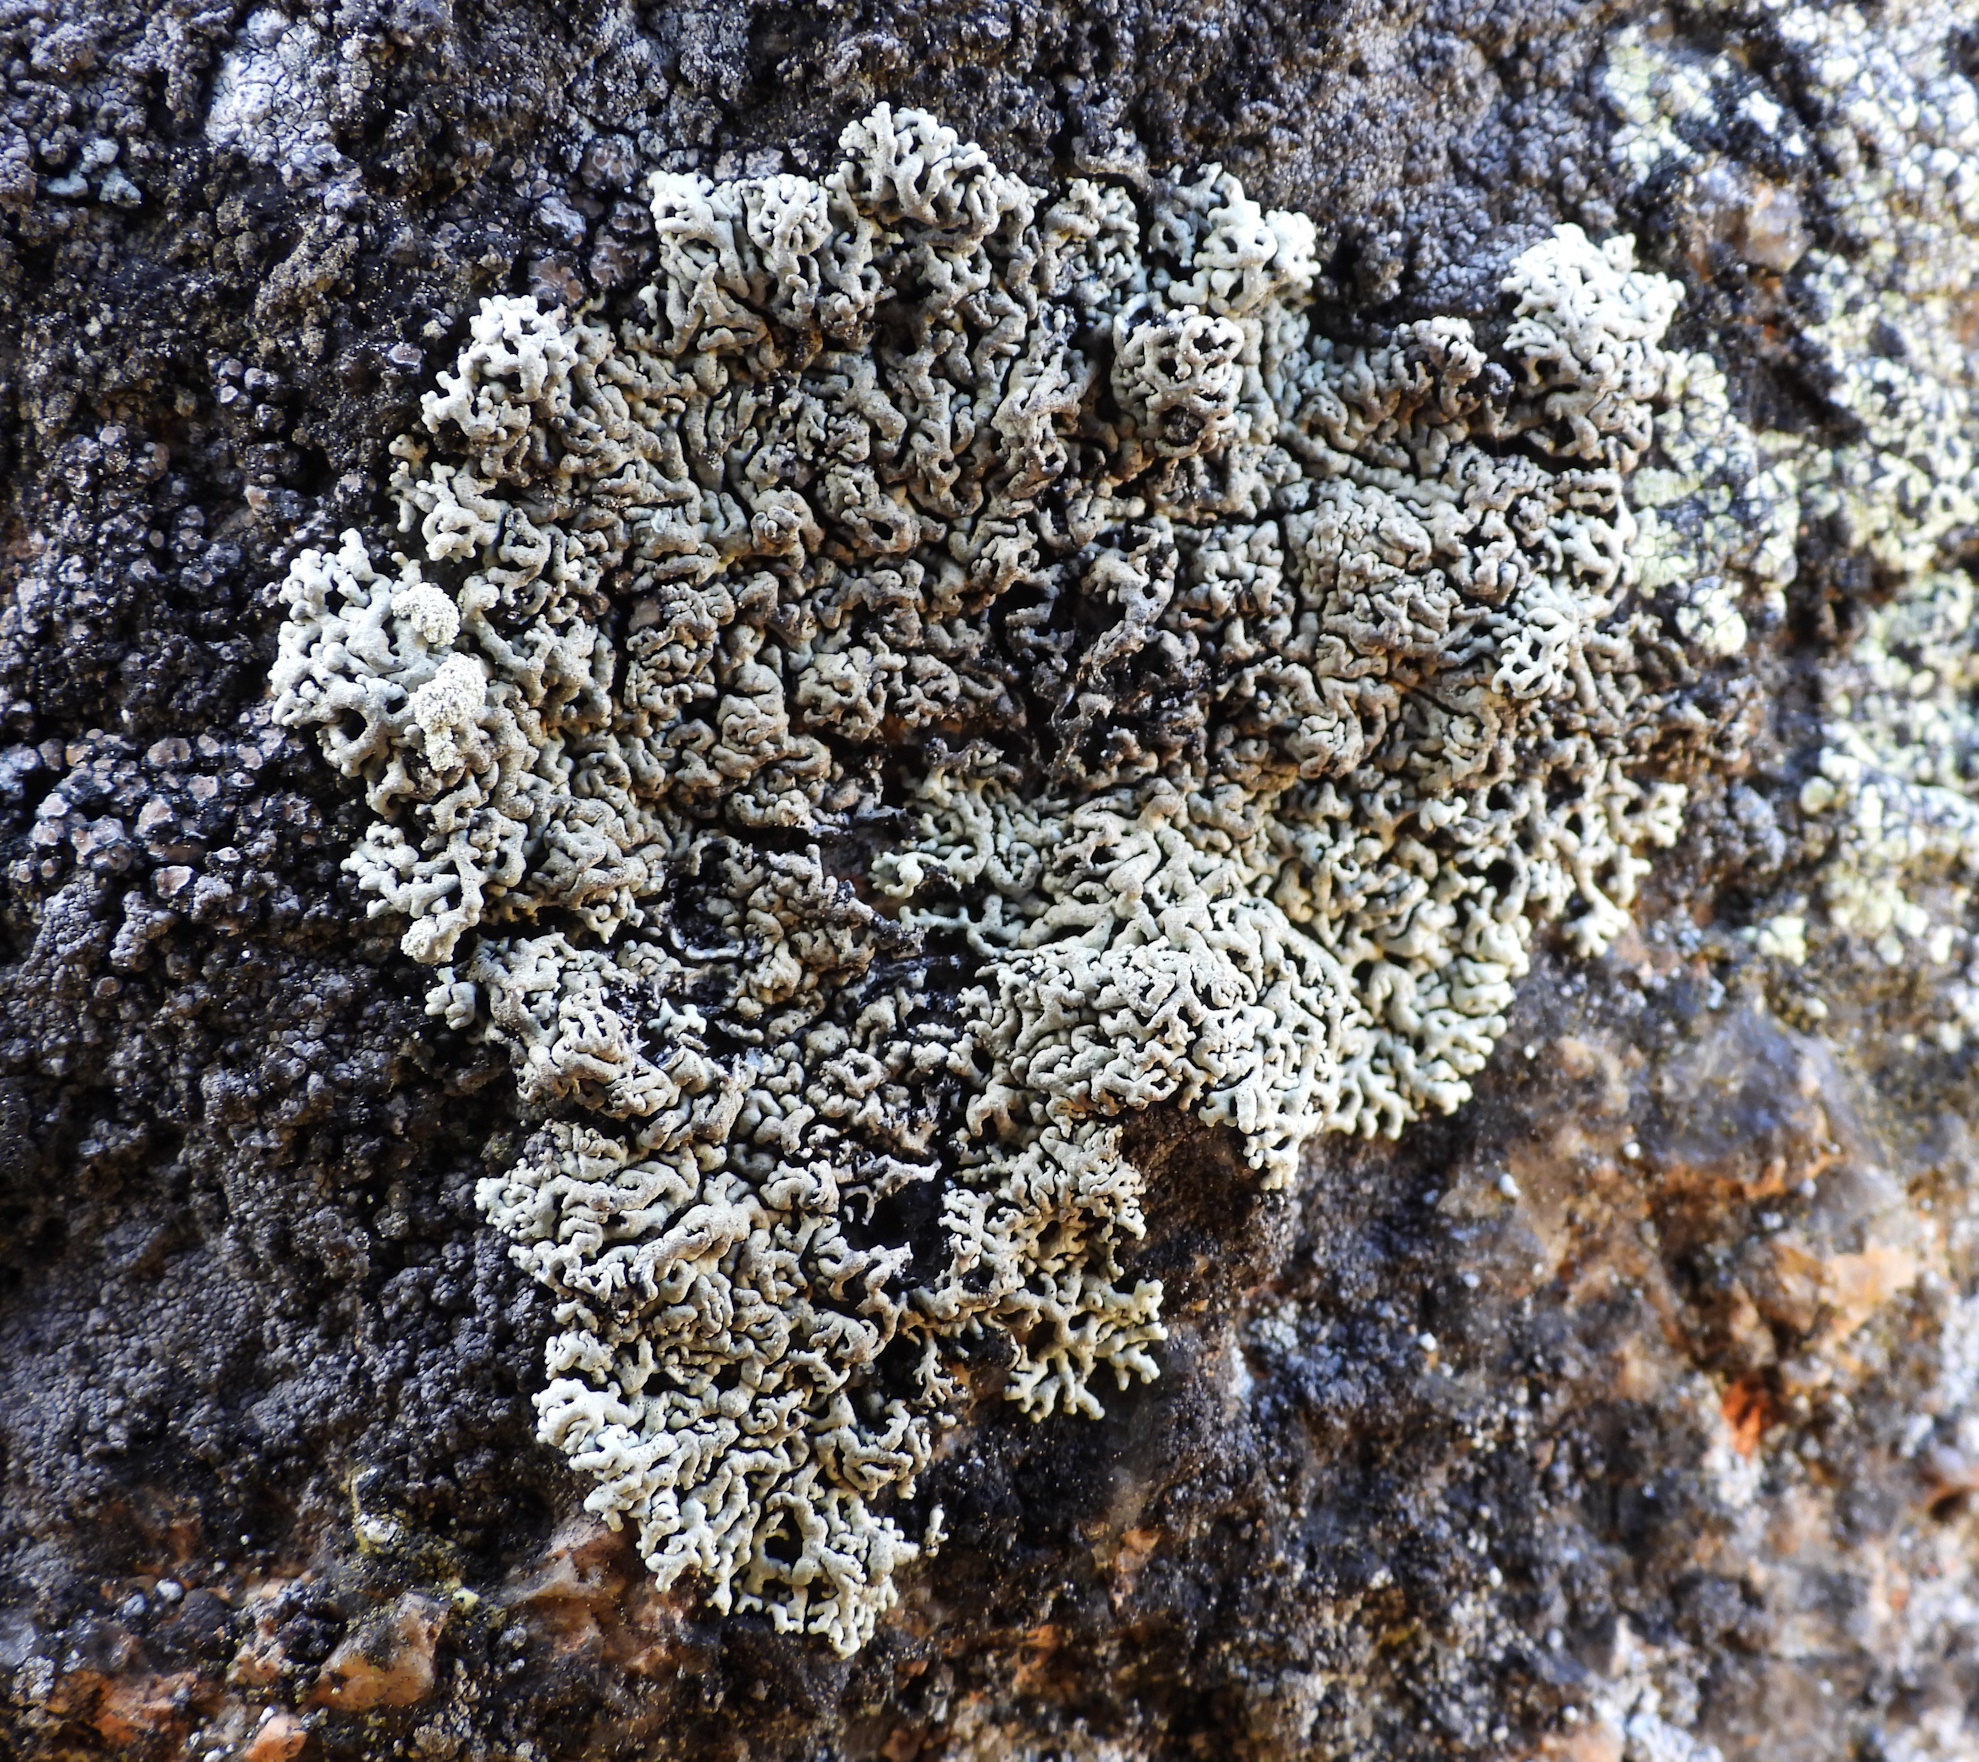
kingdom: Fungi
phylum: Ascomycota
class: Lecanoromycetes
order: Lecanorales
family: Parmeliaceae
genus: Arctoparmelia
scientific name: Arctoparmelia incurva
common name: Bent ring lichen
